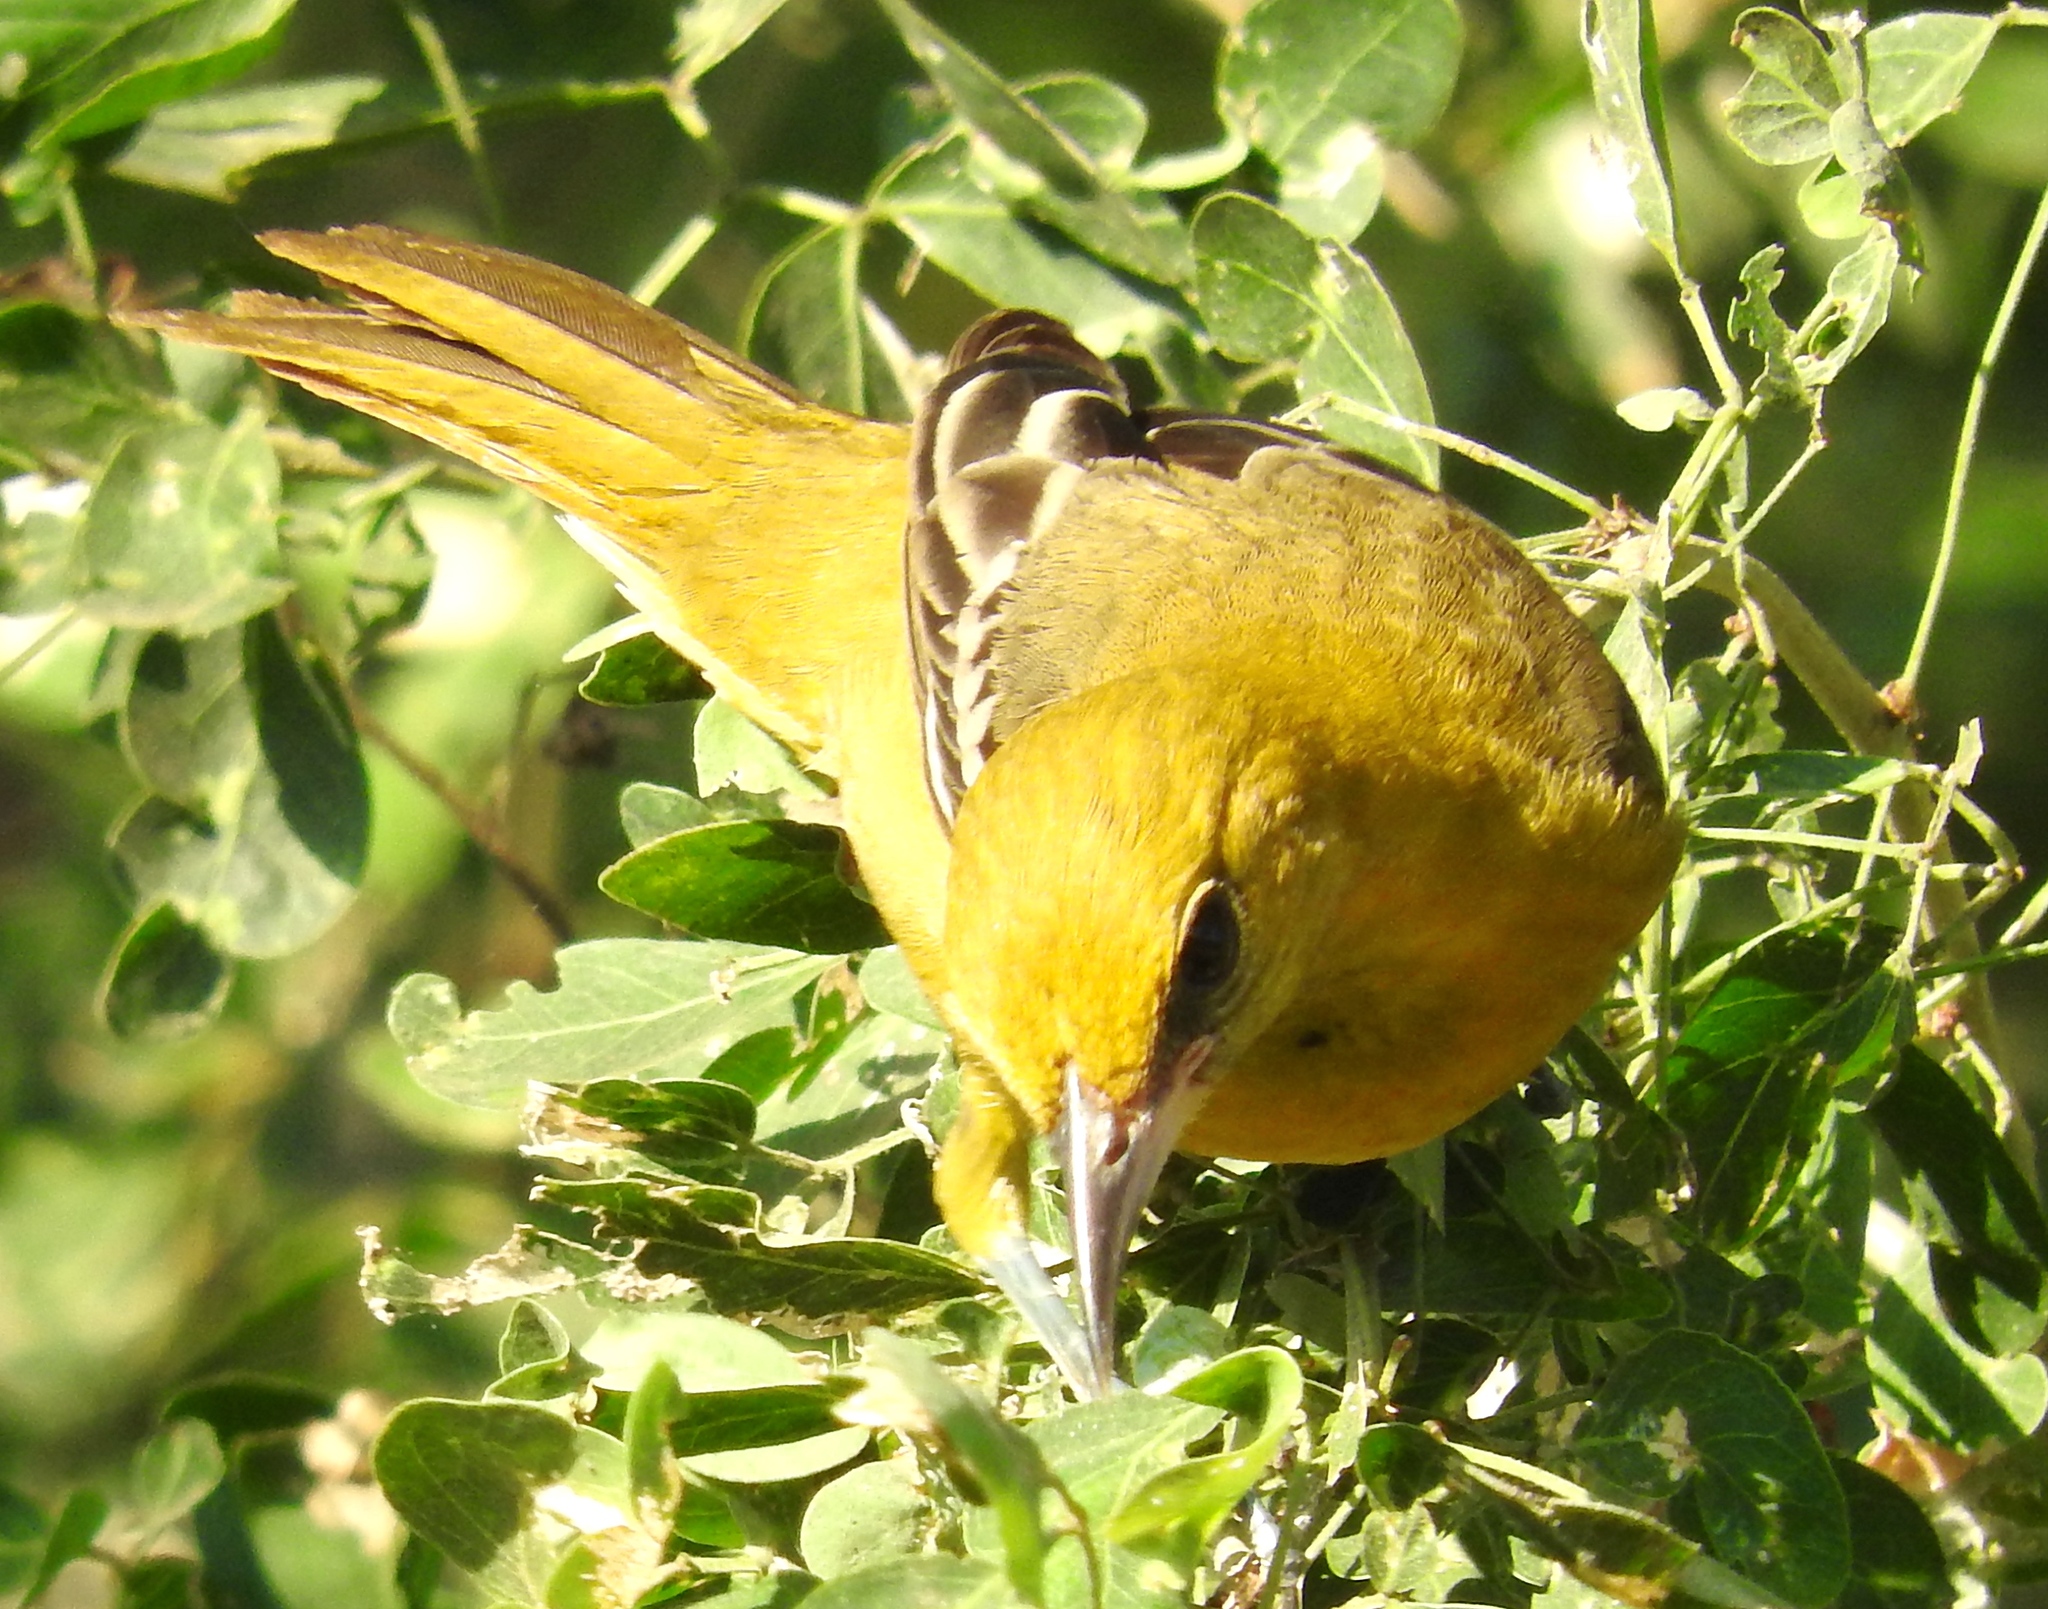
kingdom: Animalia
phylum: Chordata
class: Aves
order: Passeriformes
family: Icteridae
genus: Icterus
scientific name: Icterus
